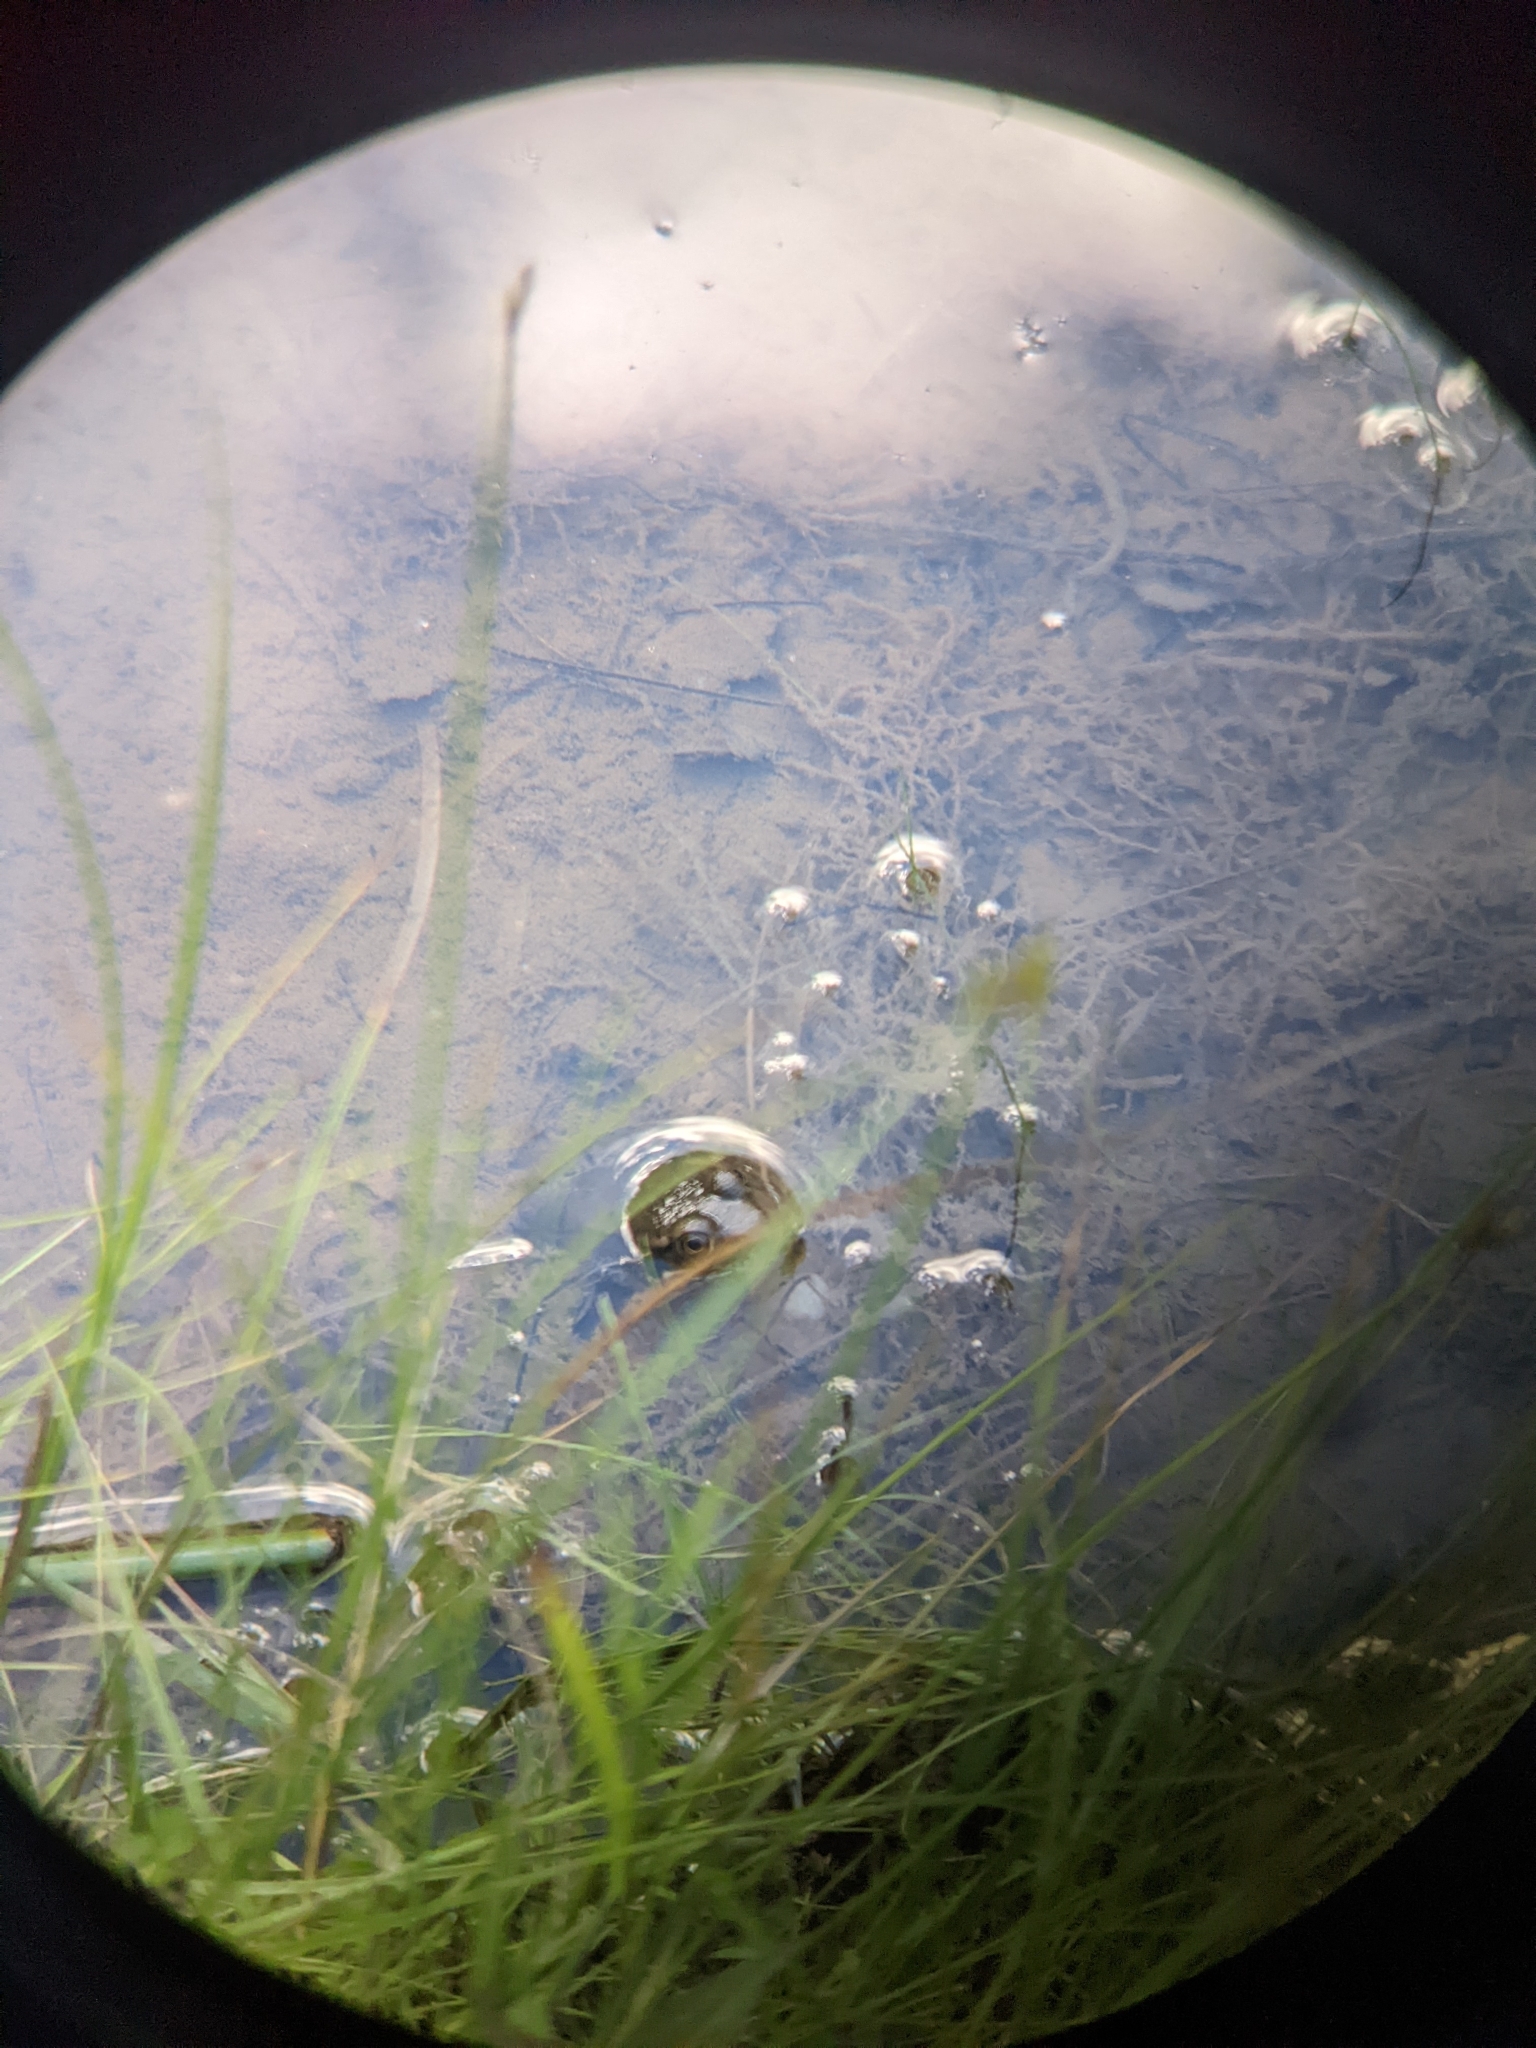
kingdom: Animalia
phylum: Chordata
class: Amphibia
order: Anura
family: Ranidae
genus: Lithobates
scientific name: Lithobates clamitans
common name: Green frog
